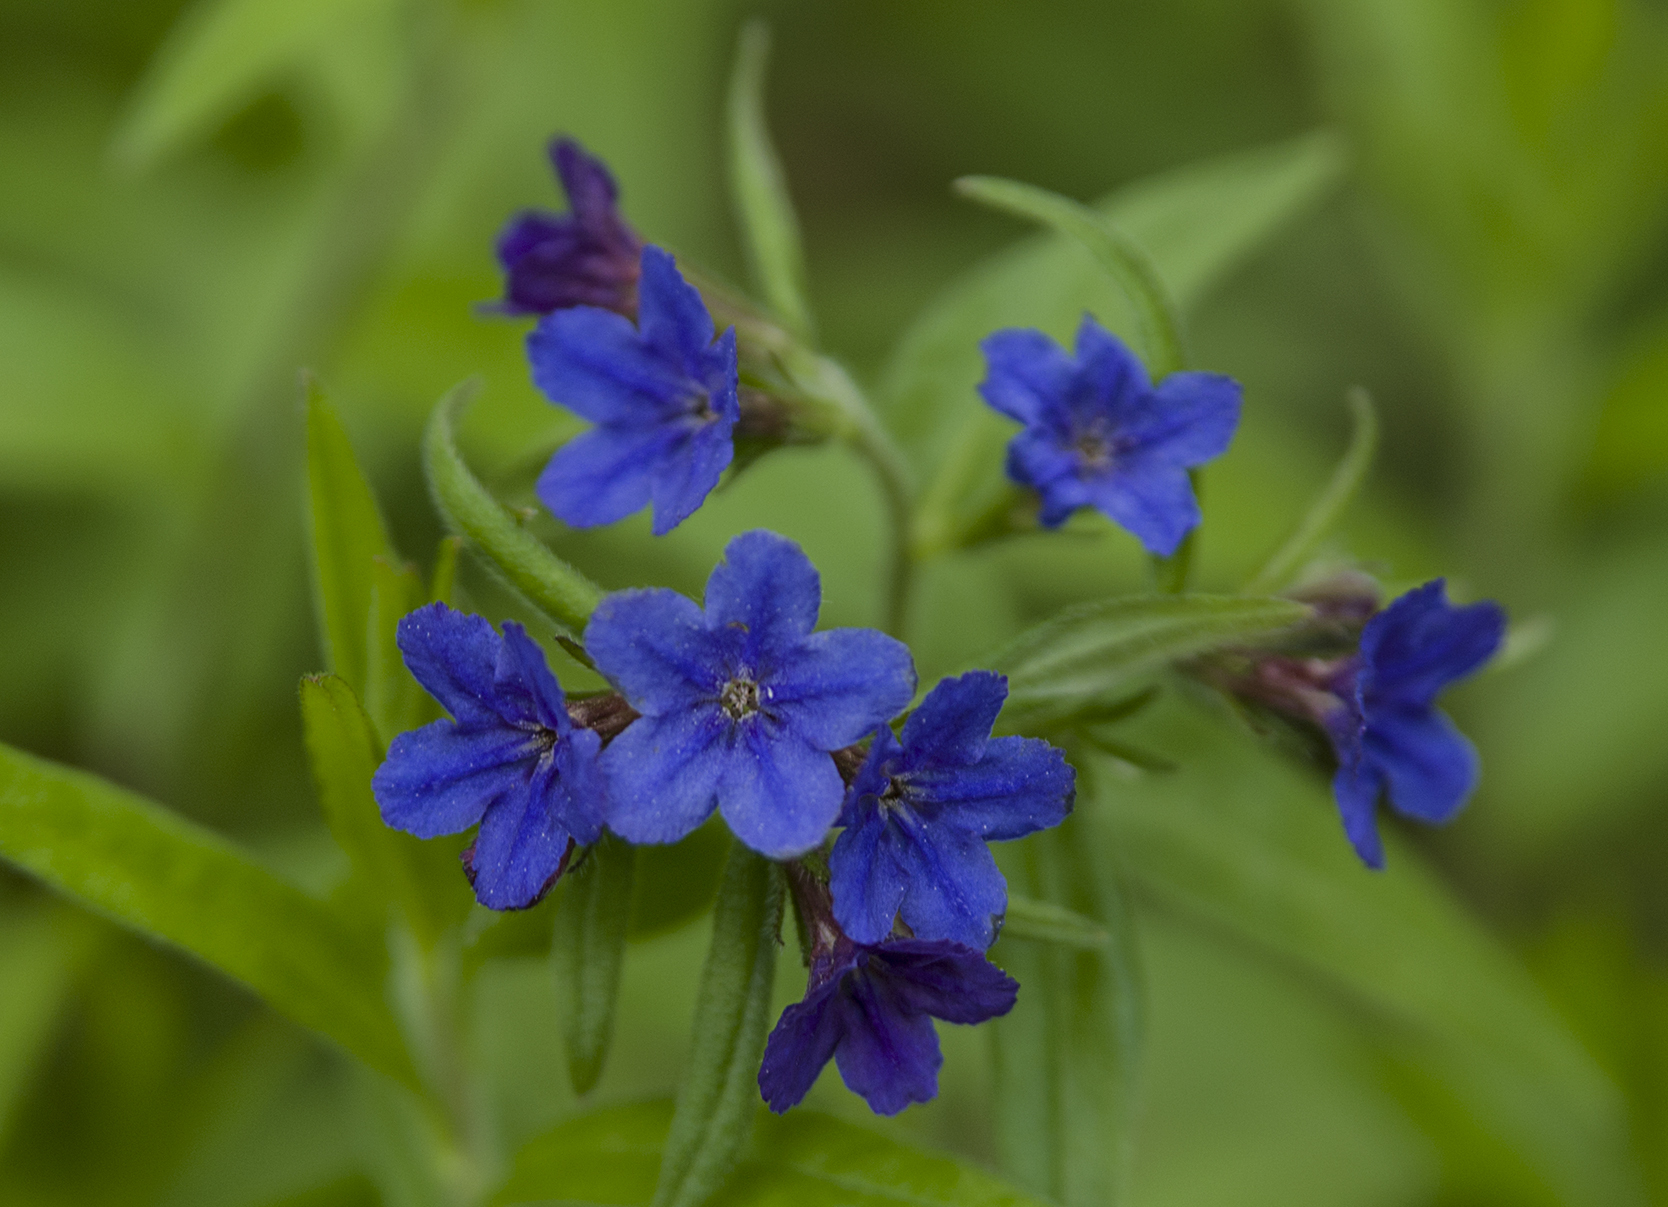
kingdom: Plantae
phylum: Tracheophyta
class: Magnoliopsida
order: Boraginales
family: Boraginaceae
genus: Aegonychon
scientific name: Aegonychon purpurocaeruleum
